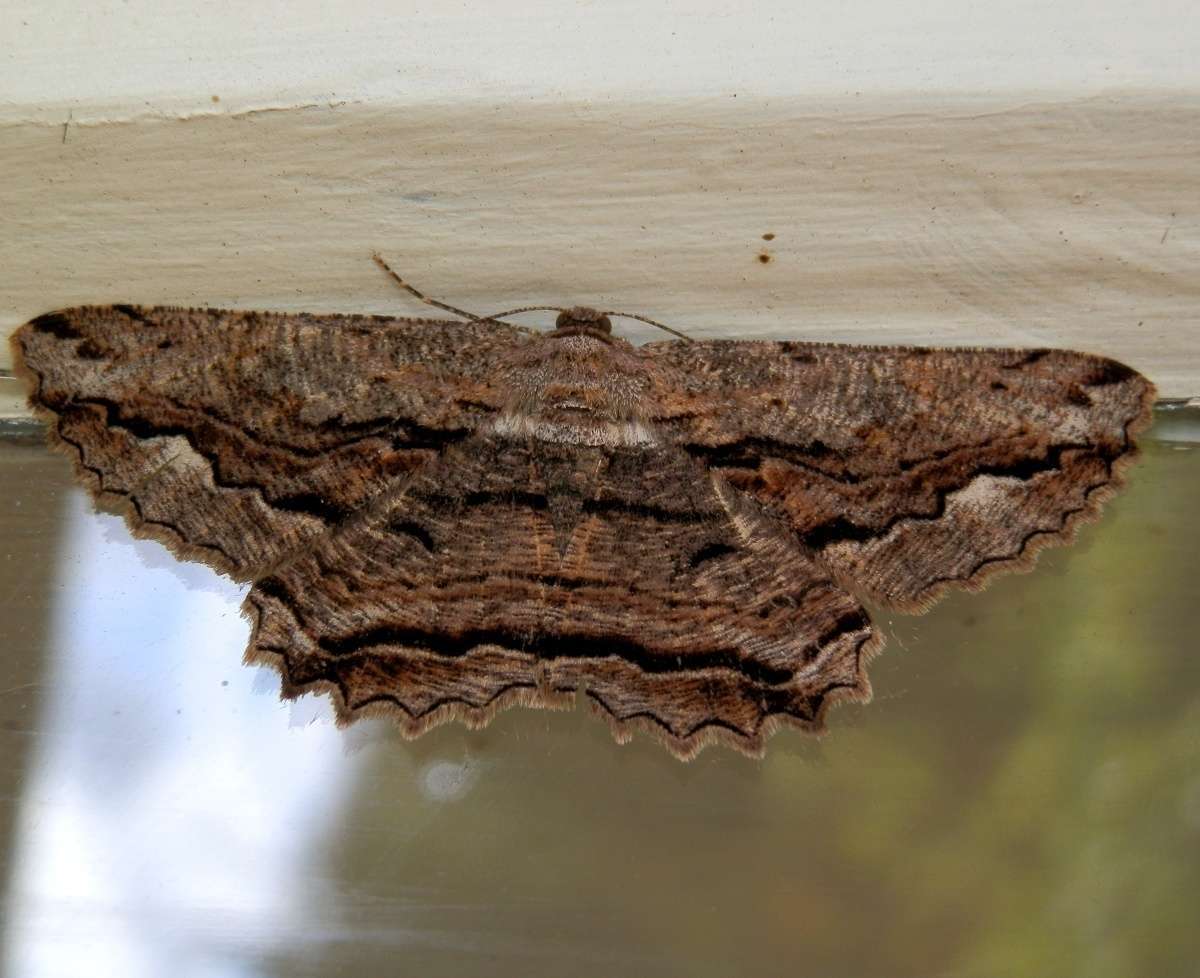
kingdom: Animalia
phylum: Arthropoda
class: Insecta
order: Lepidoptera
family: Geometridae
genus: Scioglyptis
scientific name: Scioglyptis lyciaria
